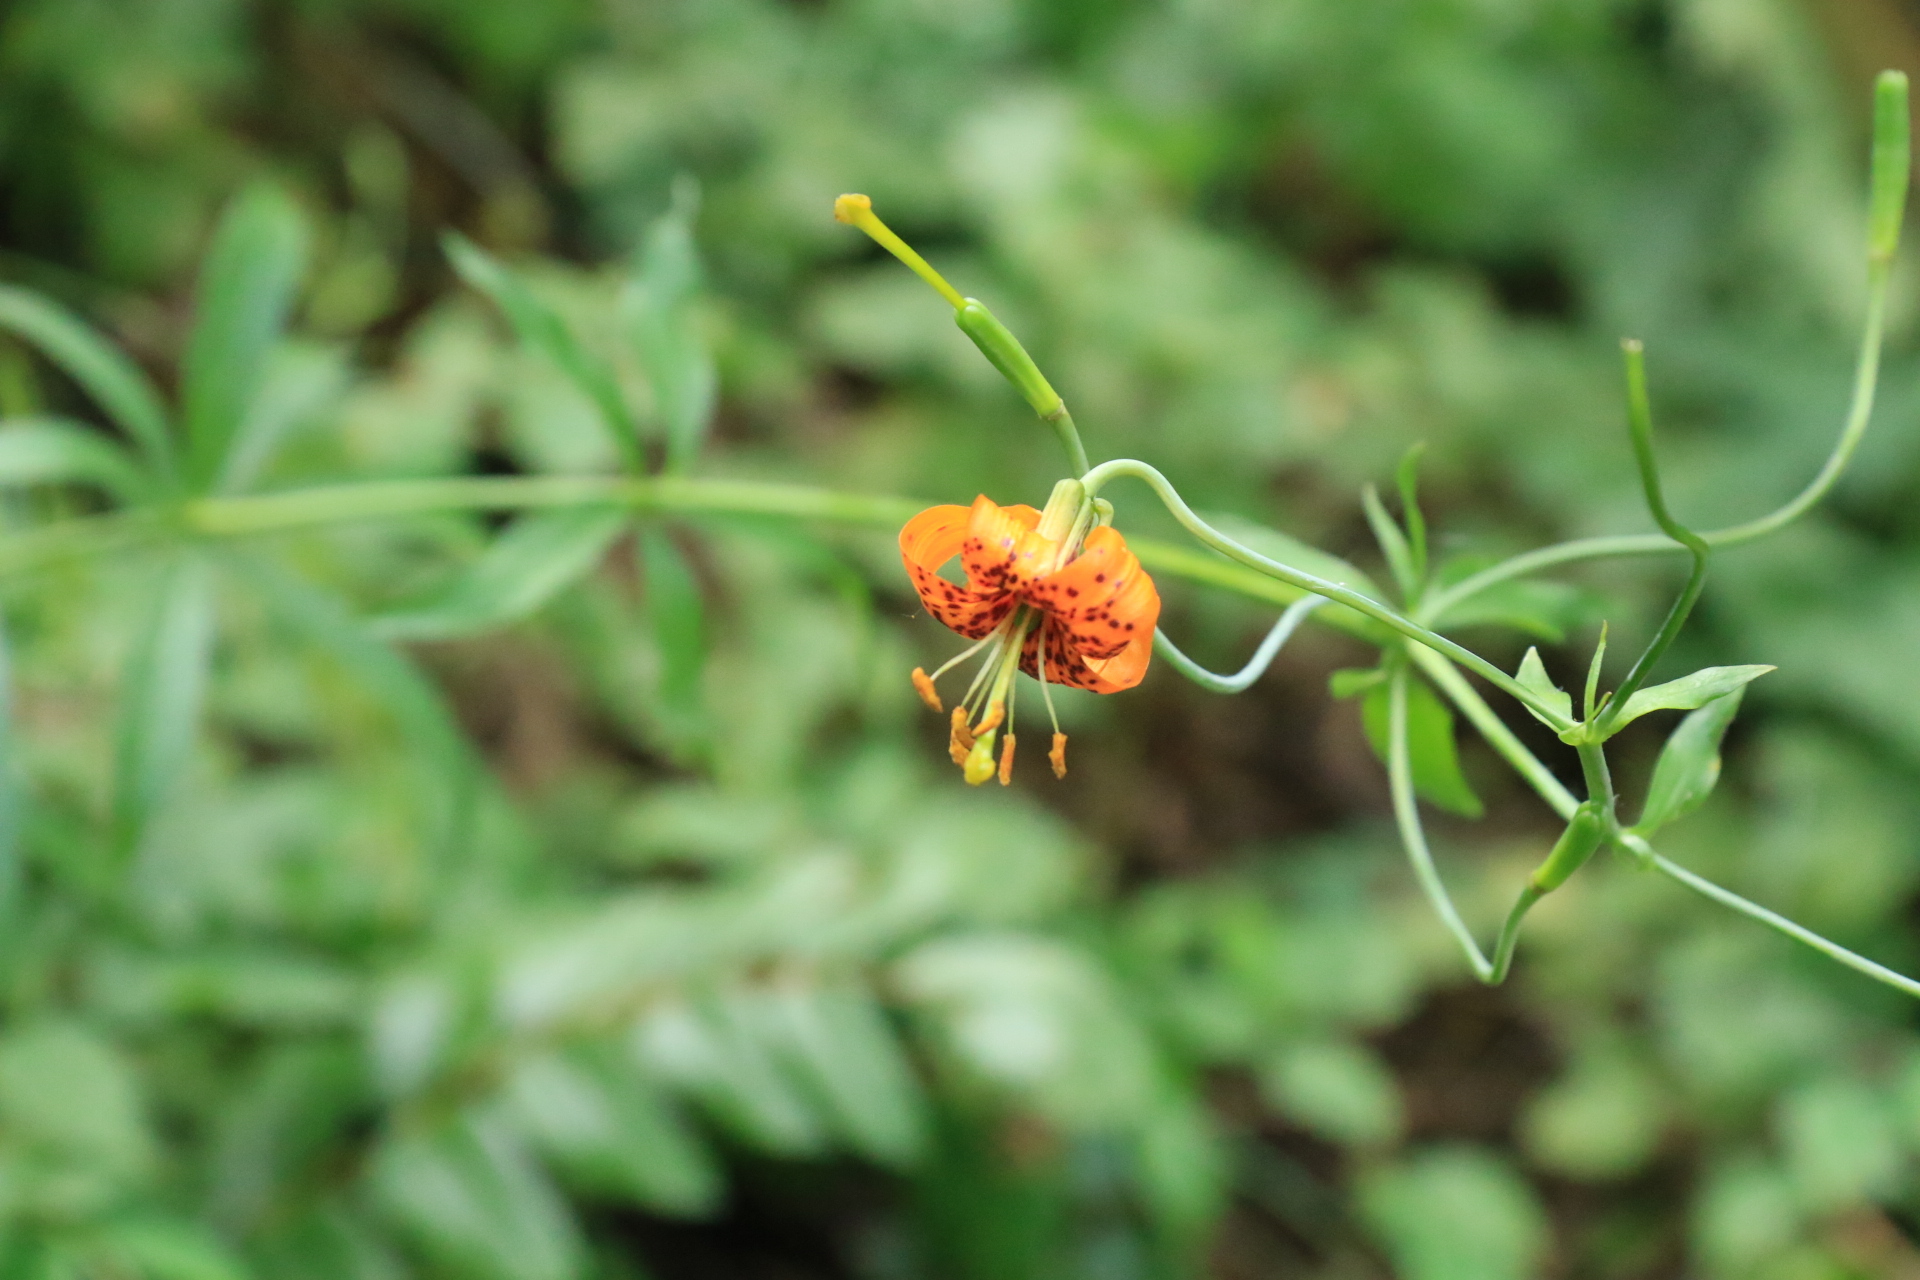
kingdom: Plantae
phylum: Tracheophyta
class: Liliopsida
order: Liliales
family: Liliaceae
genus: Lilium
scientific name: Lilium columbianum
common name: Columbia lily
